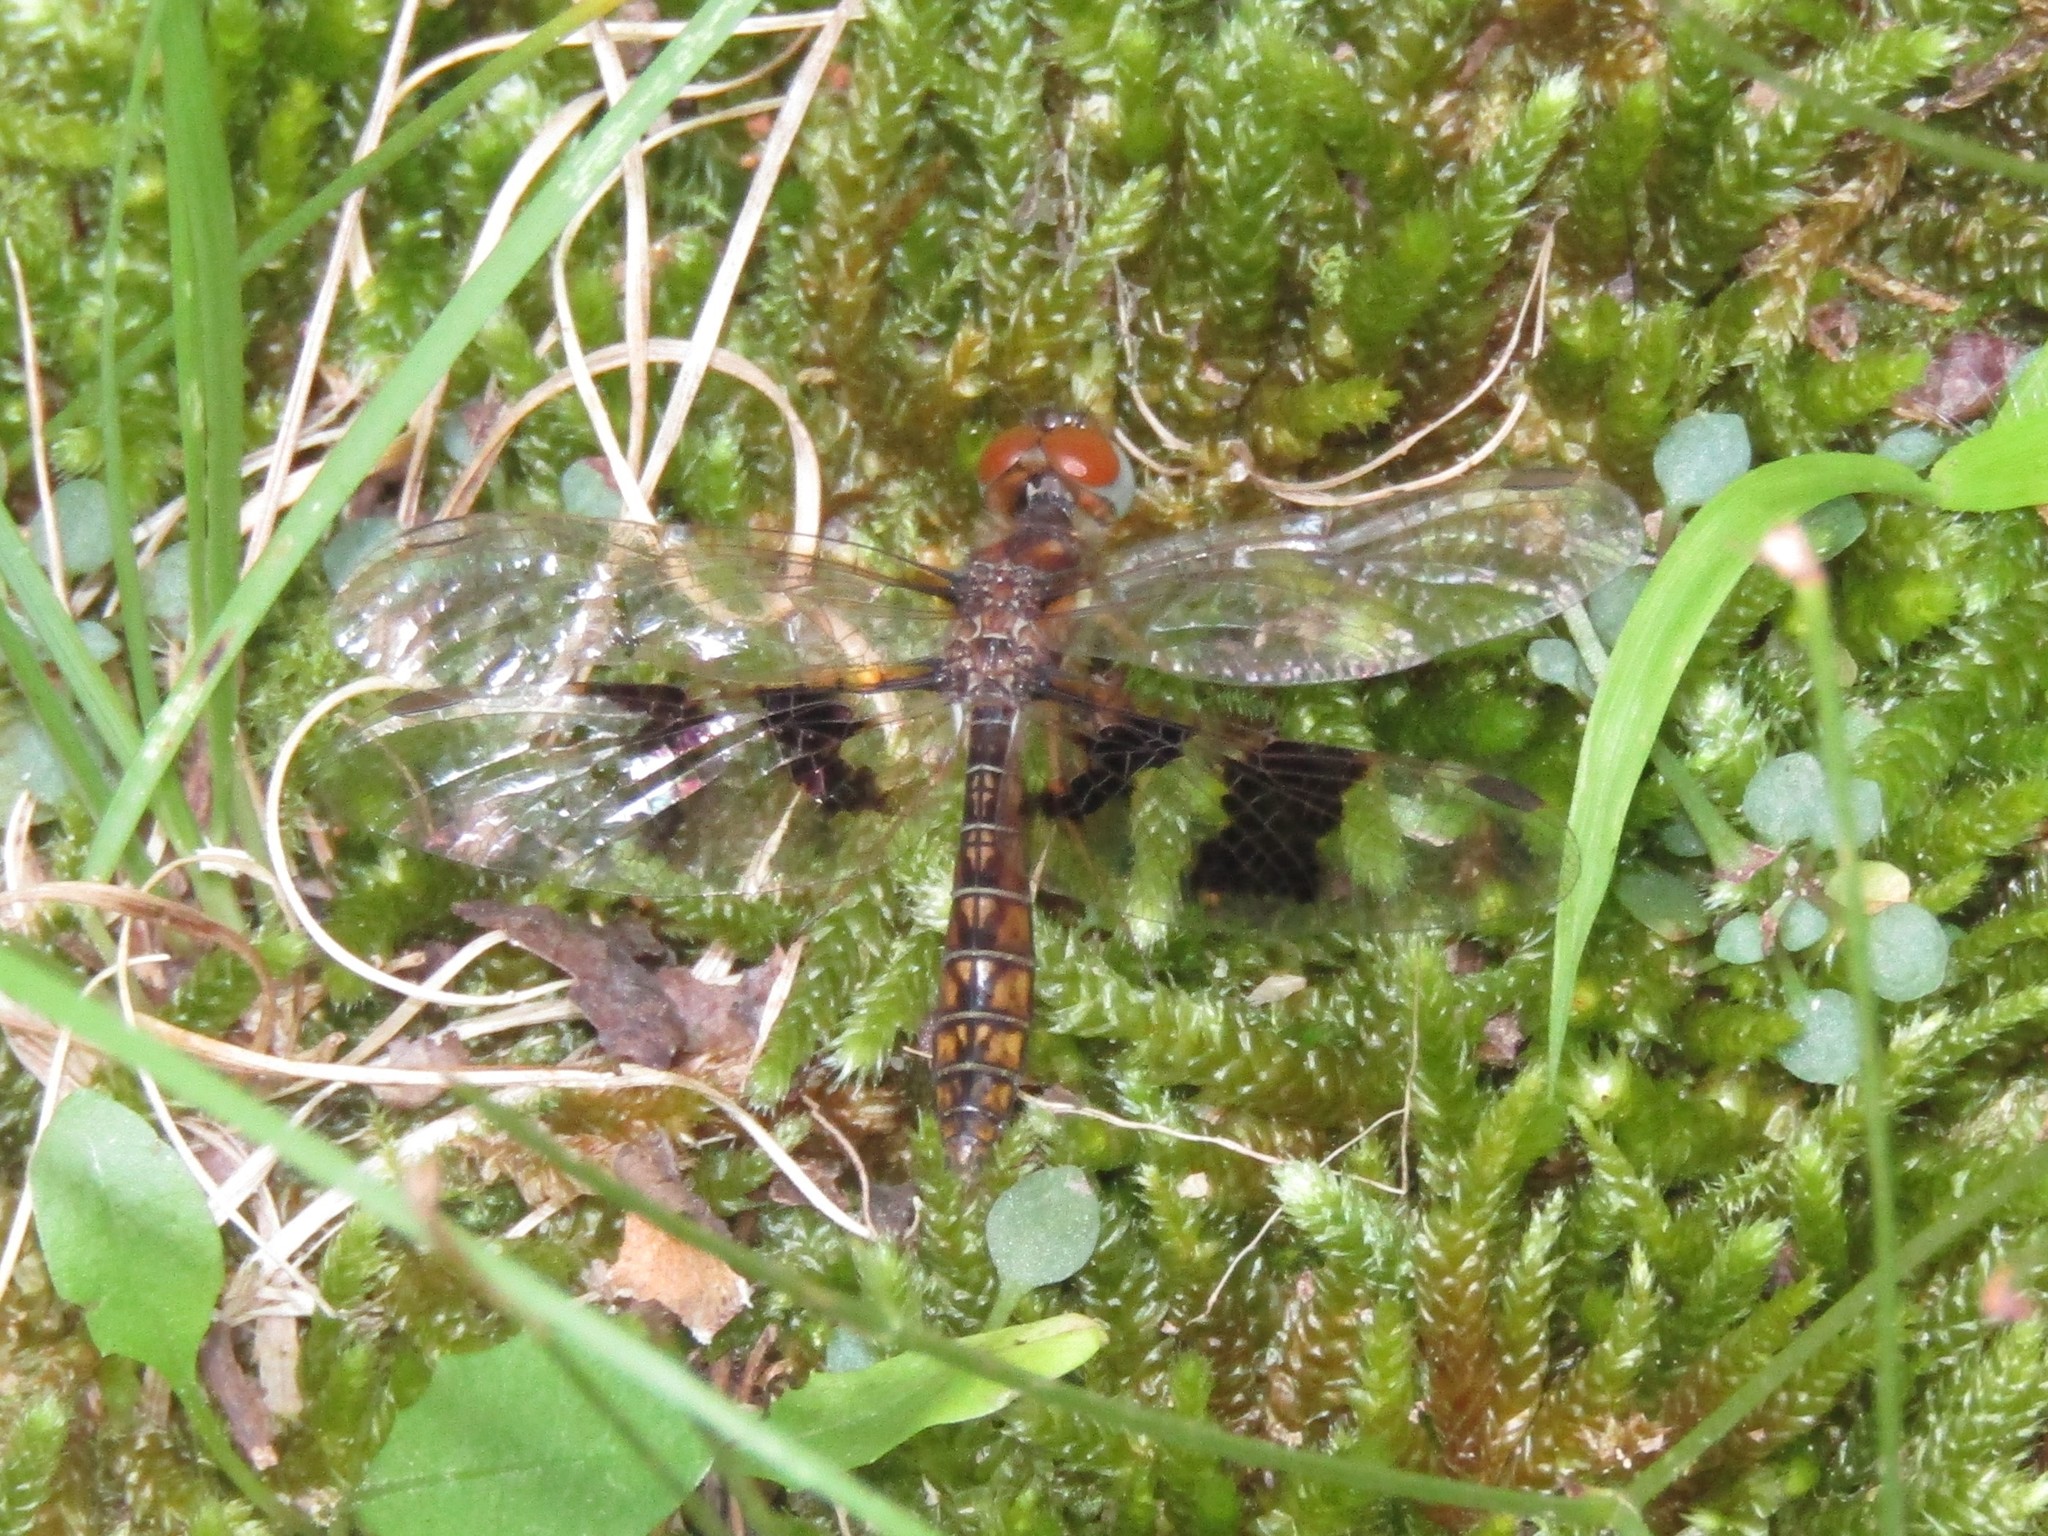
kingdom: Animalia
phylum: Arthropoda
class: Insecta
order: Odonata
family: Libellulidae
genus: Perithemis
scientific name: Perithemis tenera
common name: Eastern amberwing
